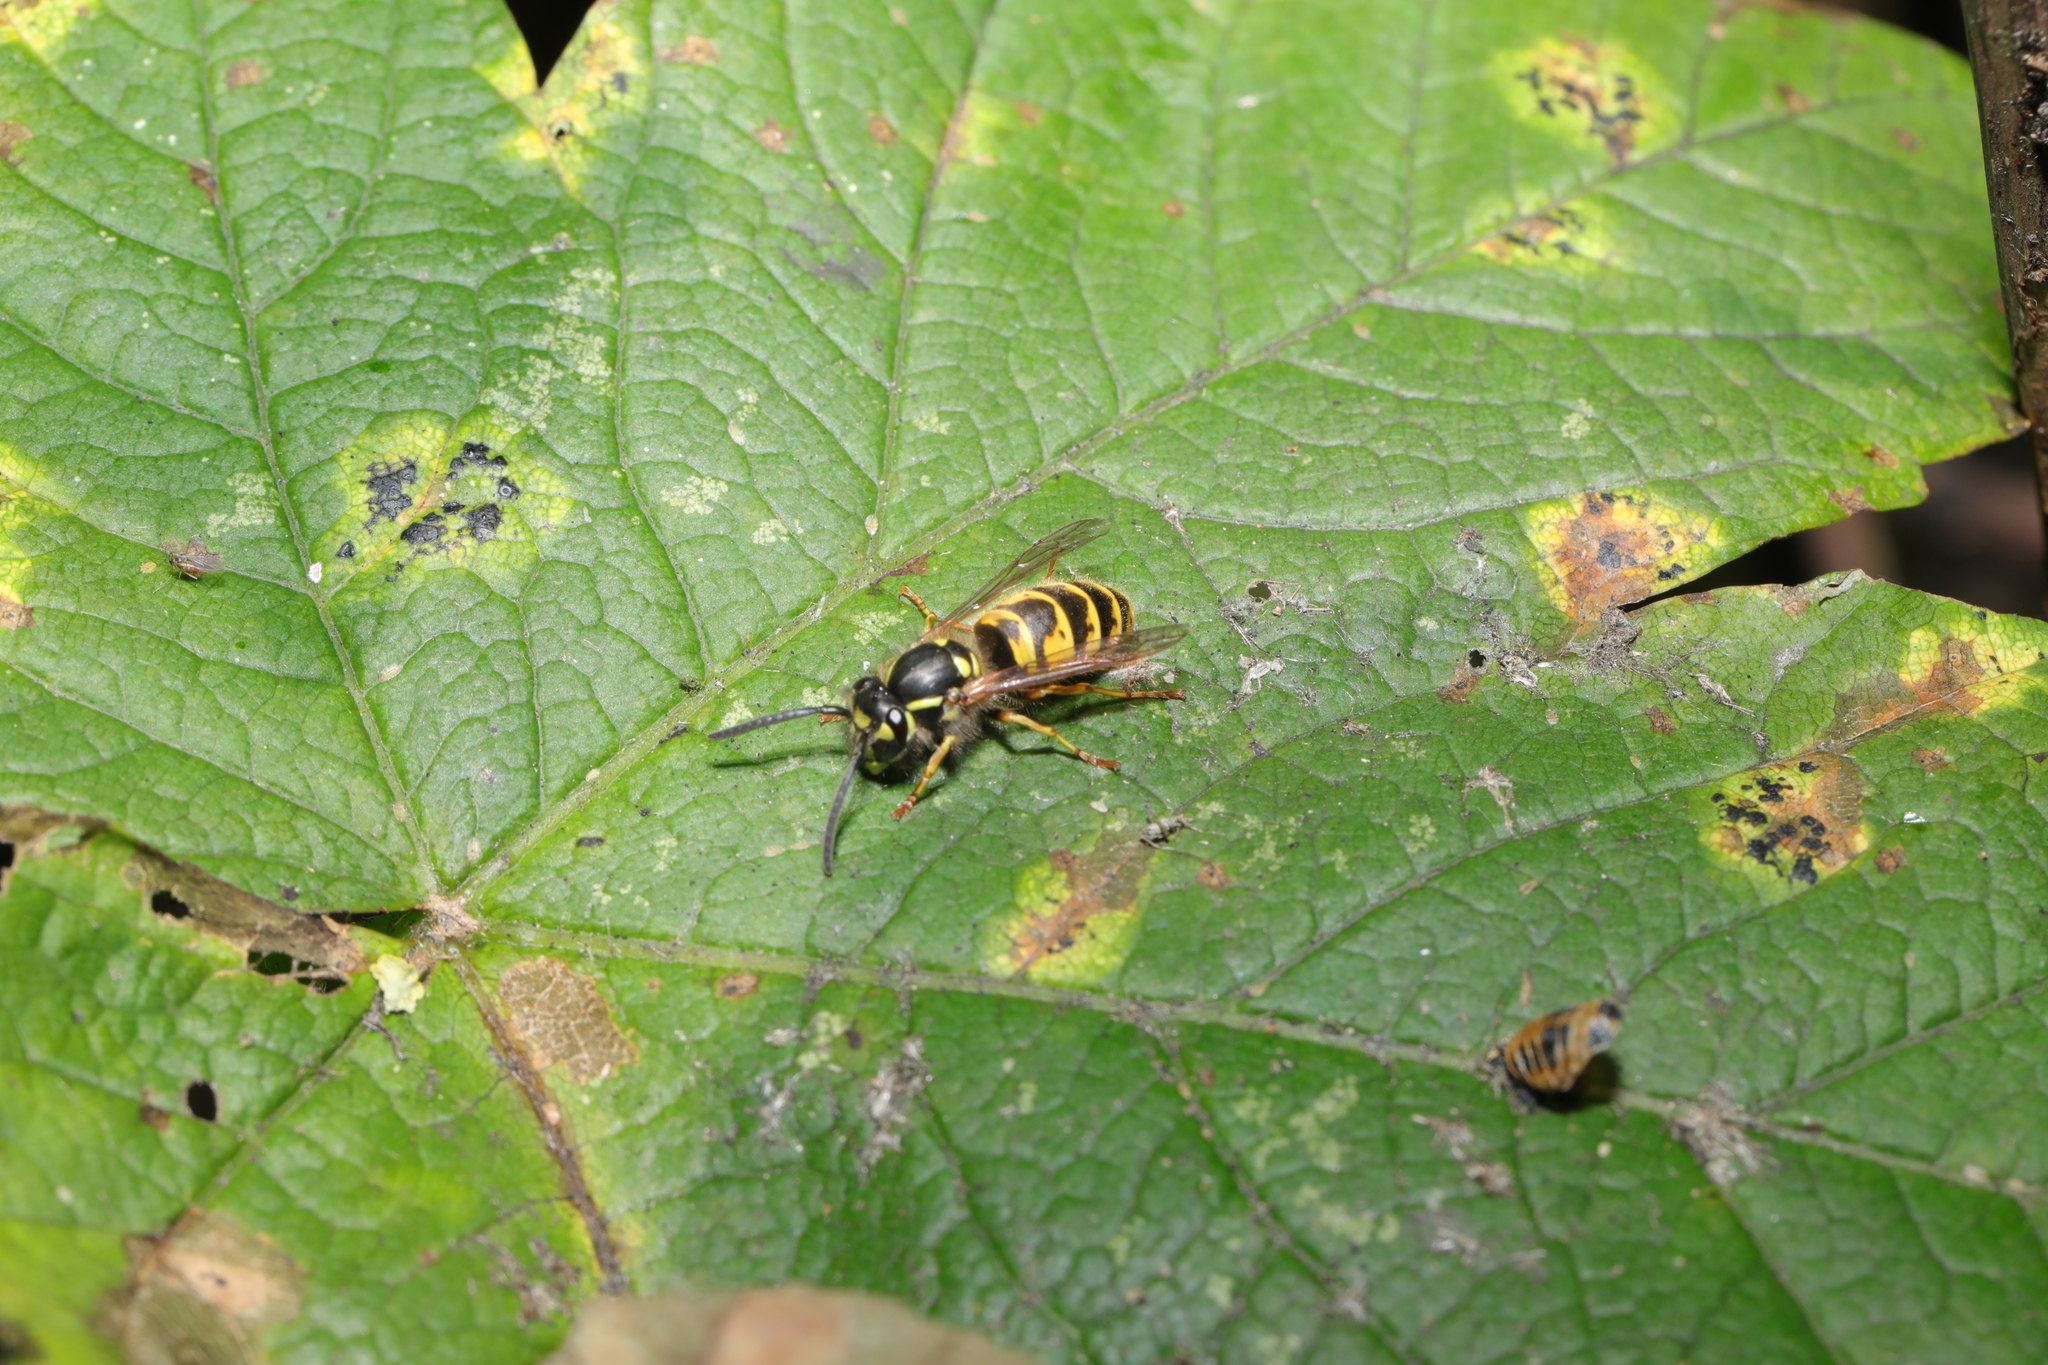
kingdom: Animalia
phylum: Arthropoda
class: Insecta
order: Hymenoptera
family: Vespidae
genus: Vespula
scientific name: Vespula vulgaris
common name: Common wasp
